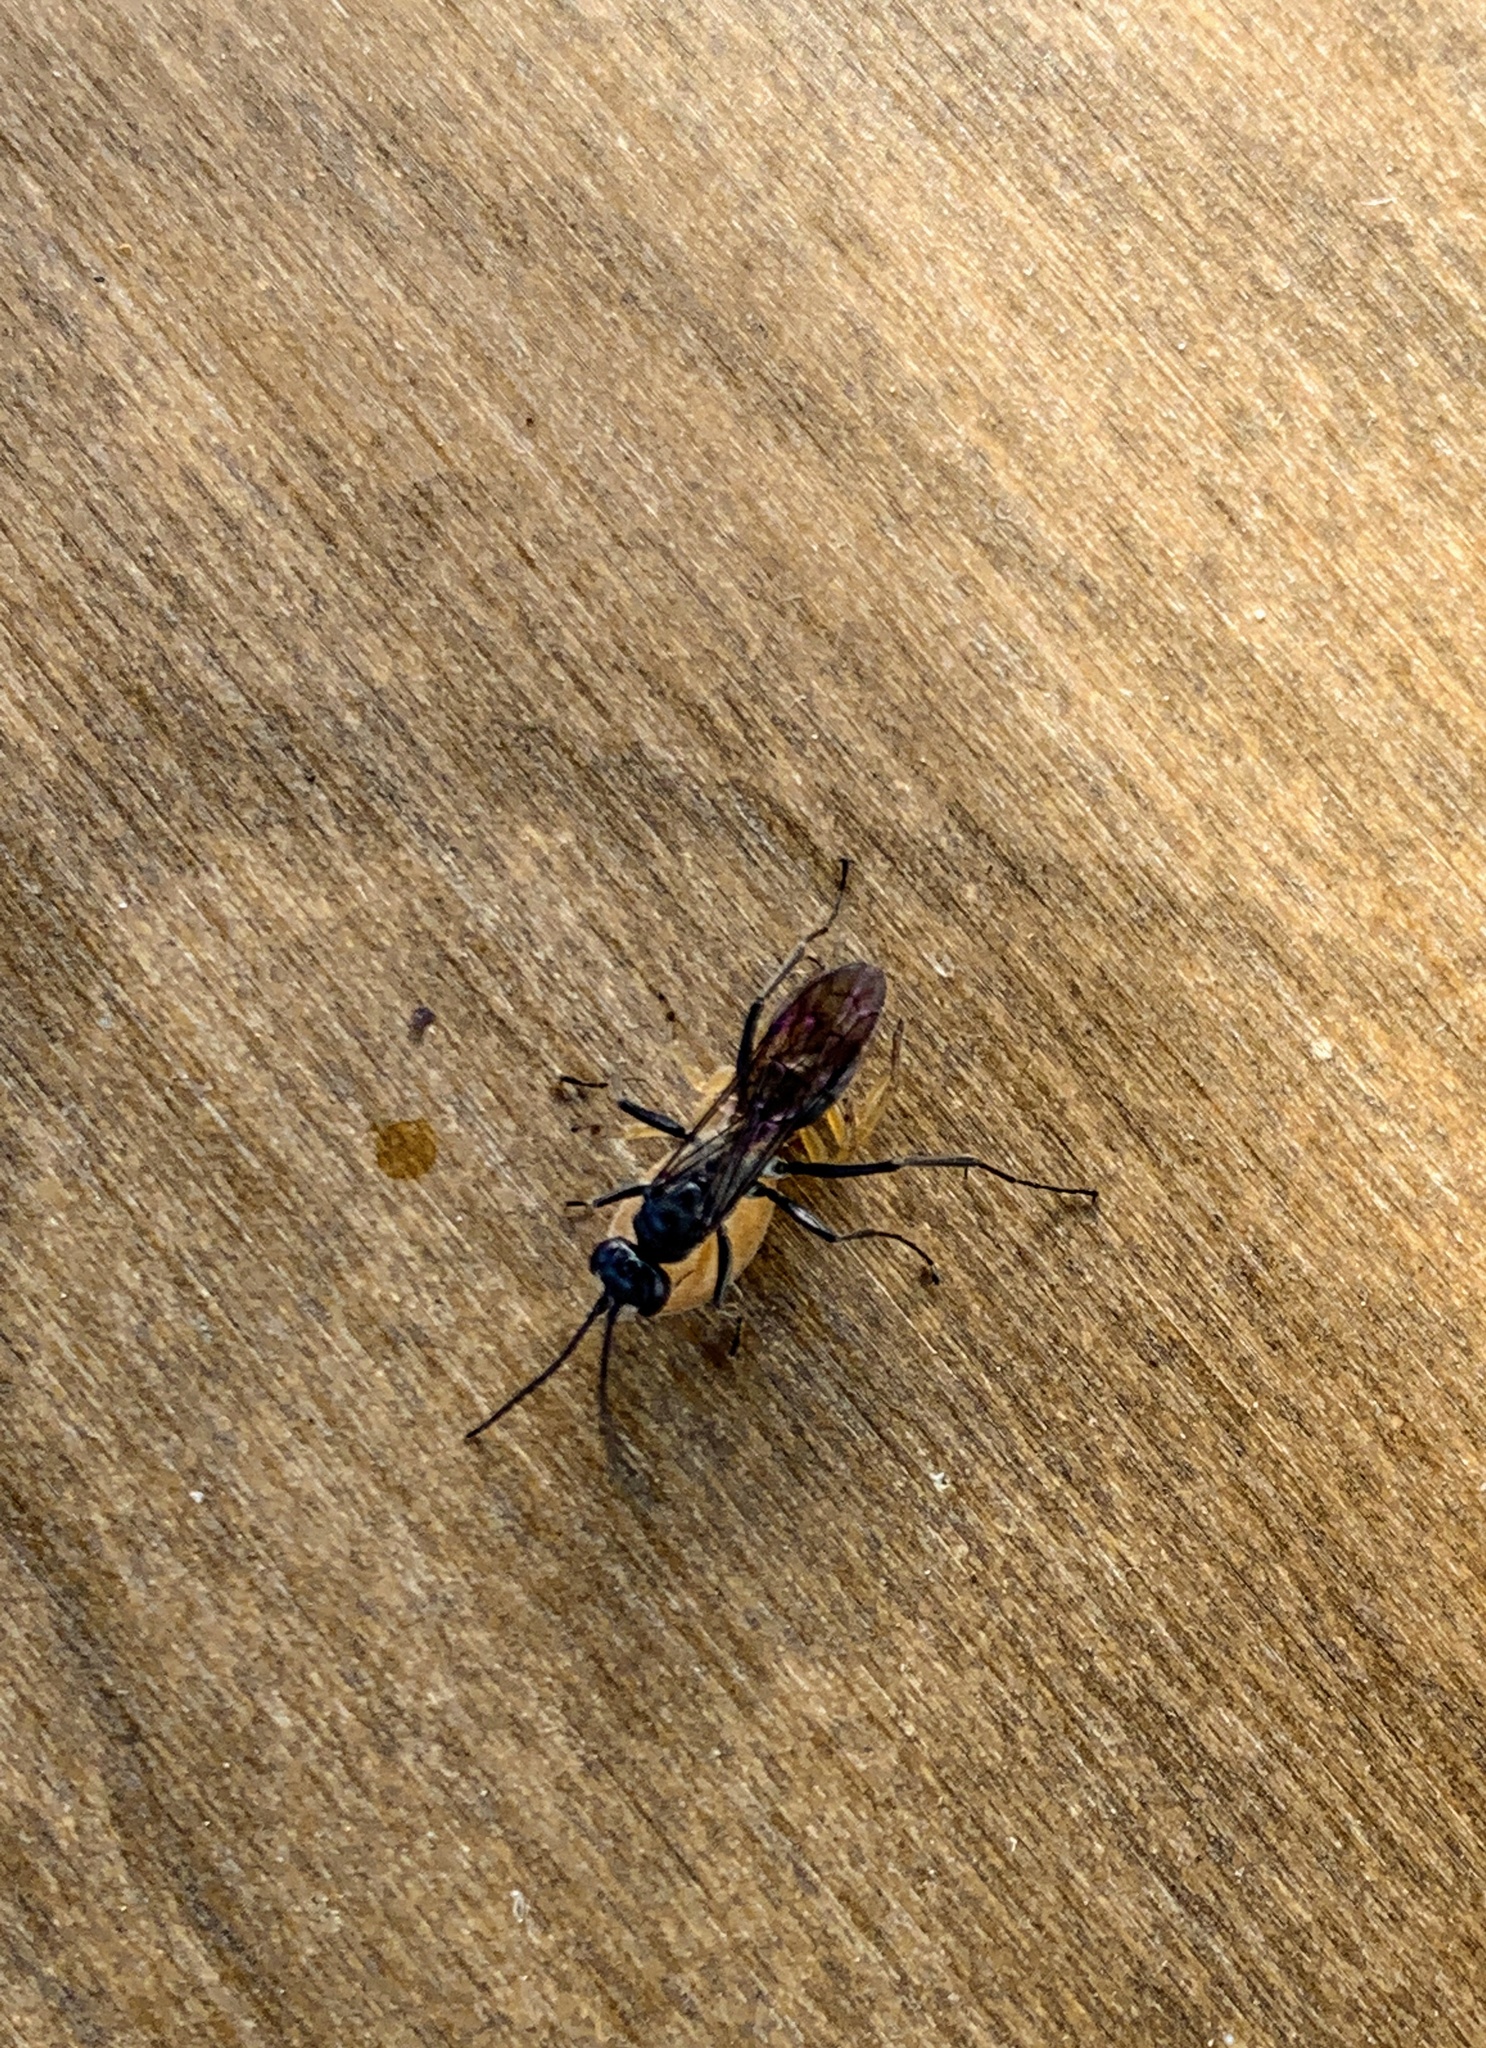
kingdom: Animalia
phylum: Arthropoda
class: Insecta
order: Hymenoptera
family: Pompilidae
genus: Auplopus
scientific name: Auplopus carbonarius
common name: Spider wasp
